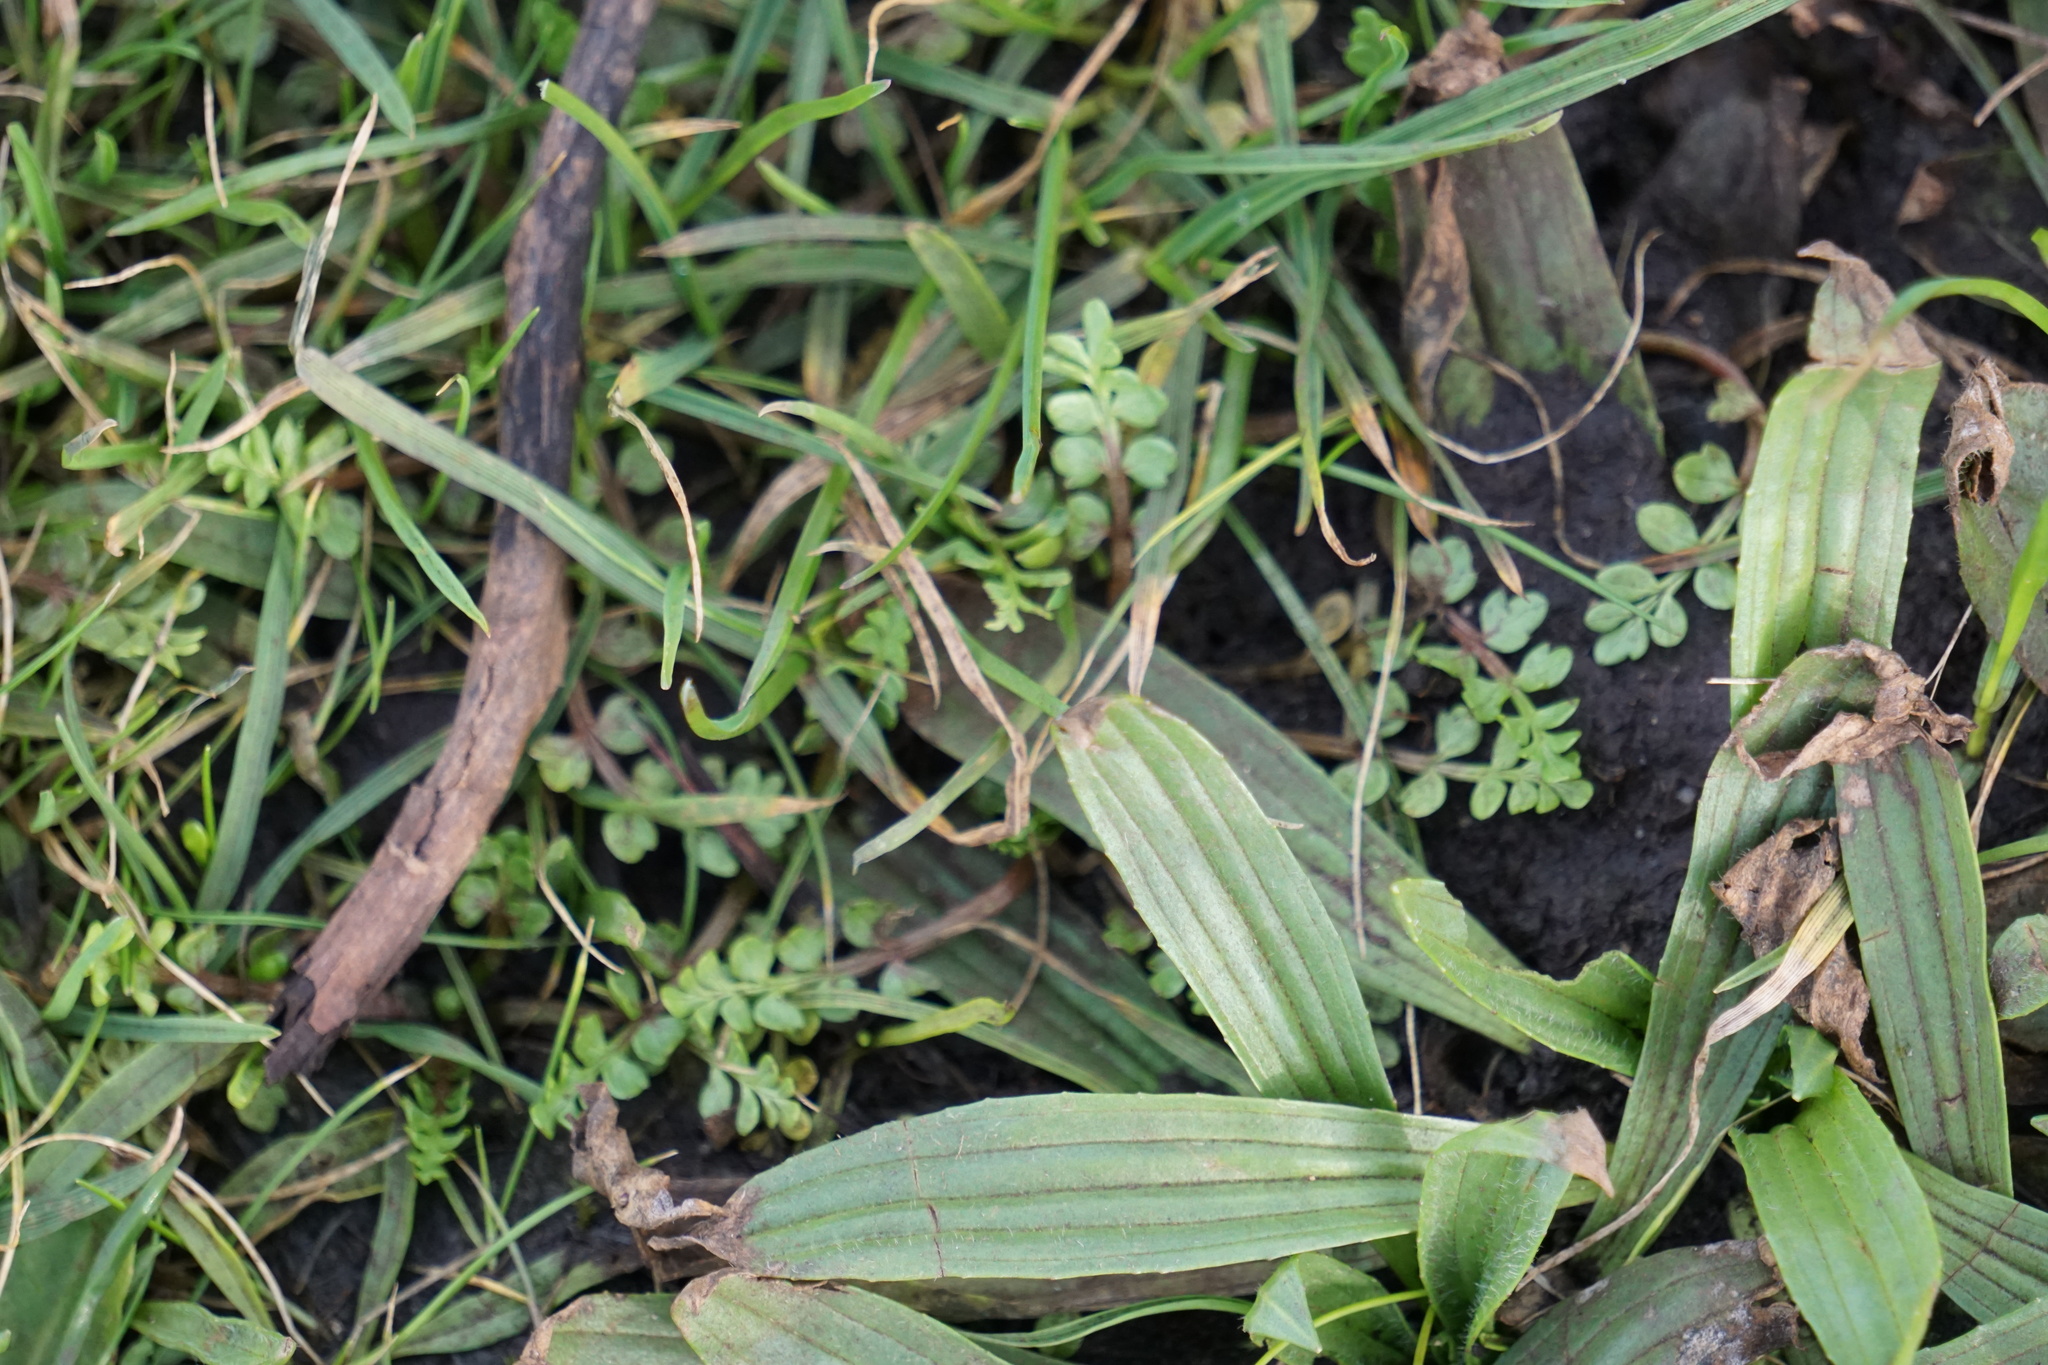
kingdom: Plantae
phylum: Tracheophyta
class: Magnoliopsida
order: Brassicales
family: Limnanthaceae
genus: Limnanthes
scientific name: Limnanthes macounii
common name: Macoun's meadowfoam
